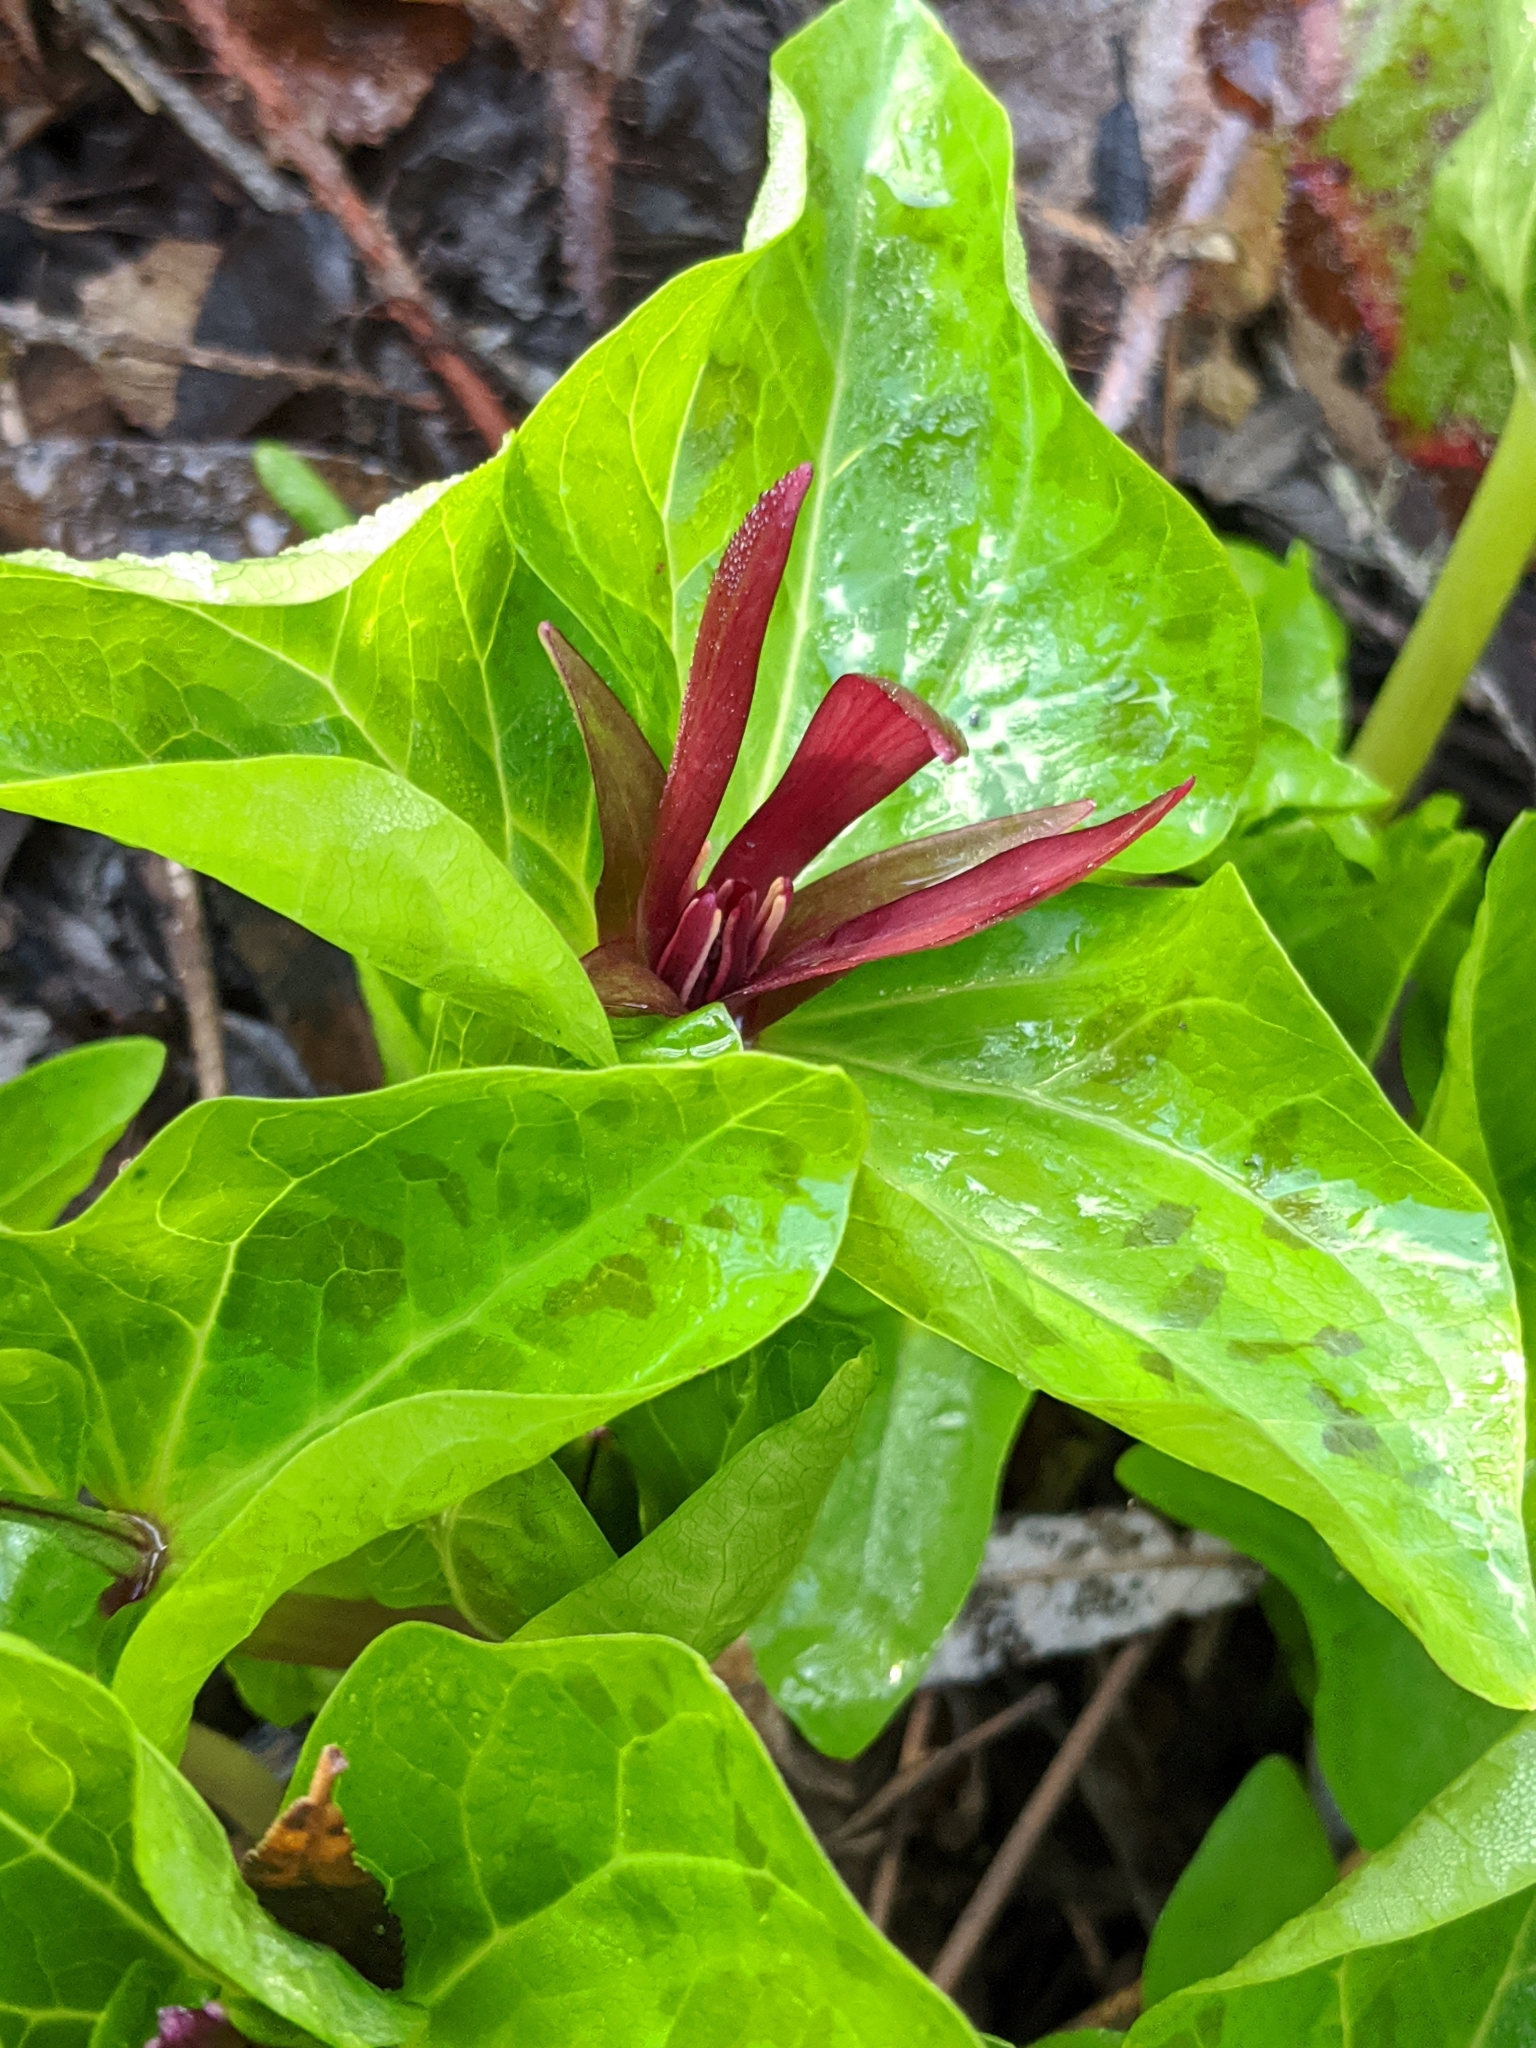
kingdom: Plantae
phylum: Tracheophyta
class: Liliopsida
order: Liliales
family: Melanthiaceae
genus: Trillium
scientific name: Trillium angustipetalum
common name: Narrow-petaled trillium
